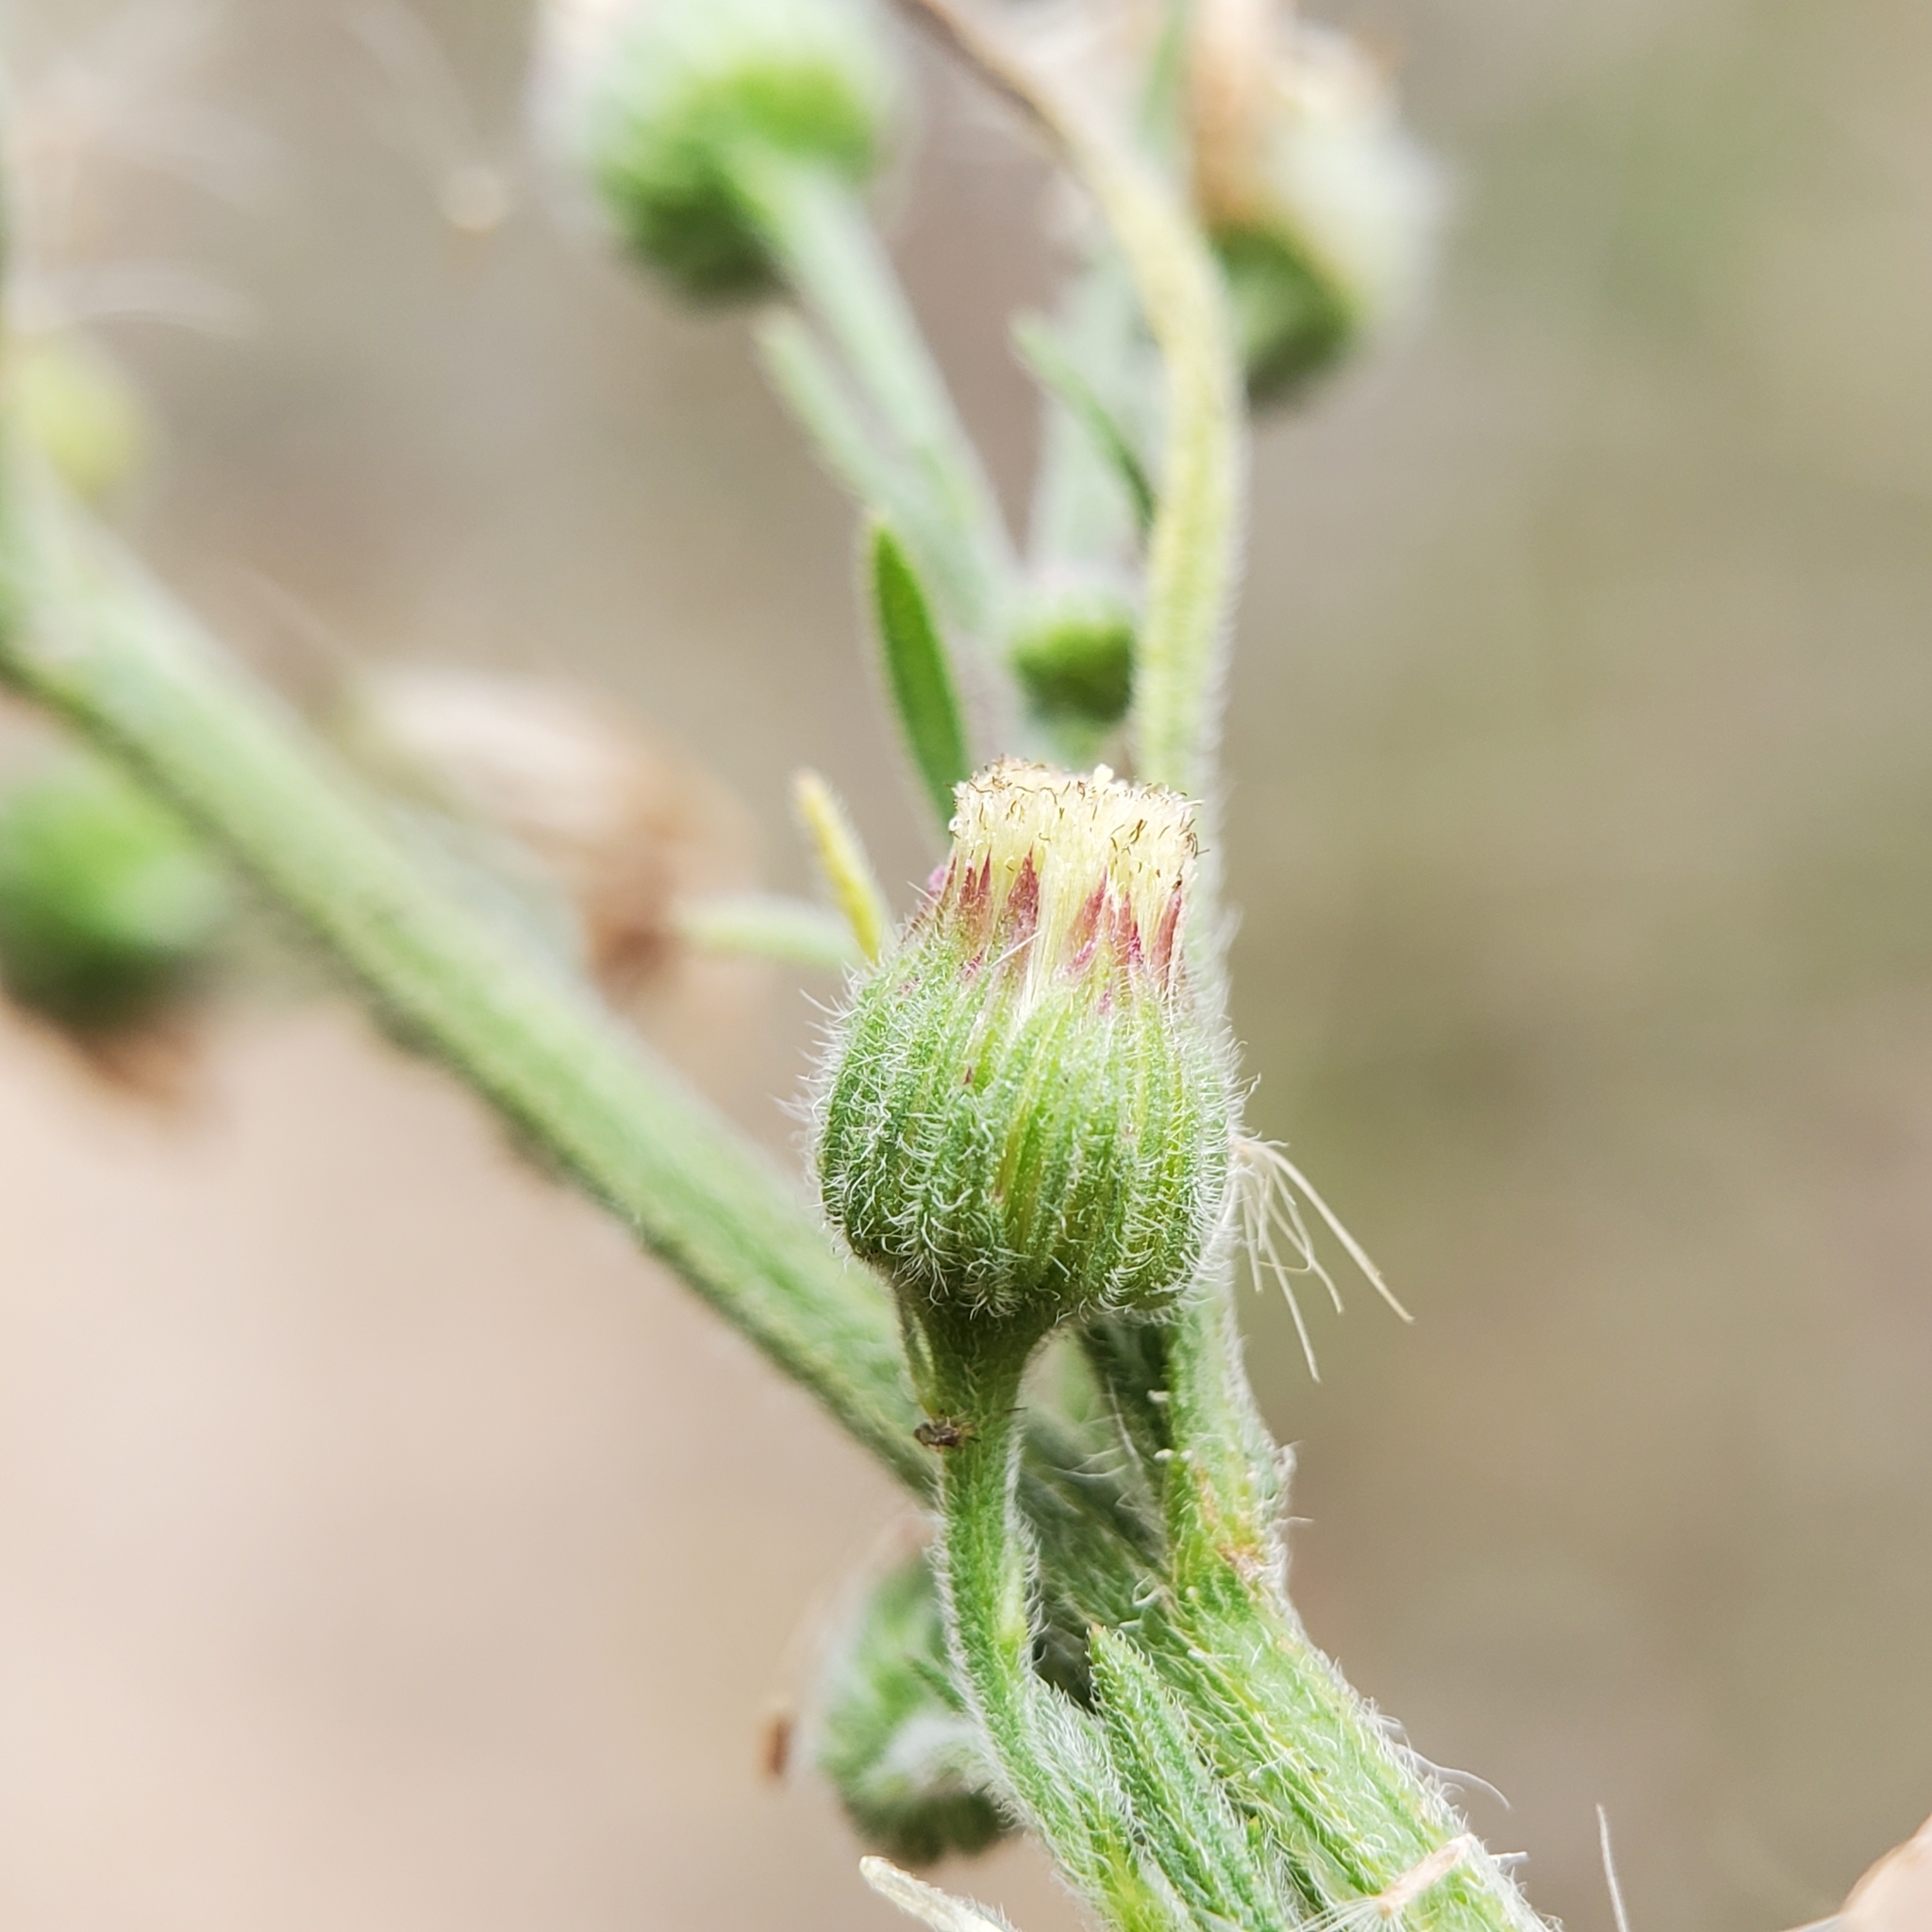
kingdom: Plantae
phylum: Tracheophyta
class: Magnoliopsida
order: Asterales
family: Asteraceae
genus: Erigeron
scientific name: Erigeron bonariensis
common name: Argentine fleabane
